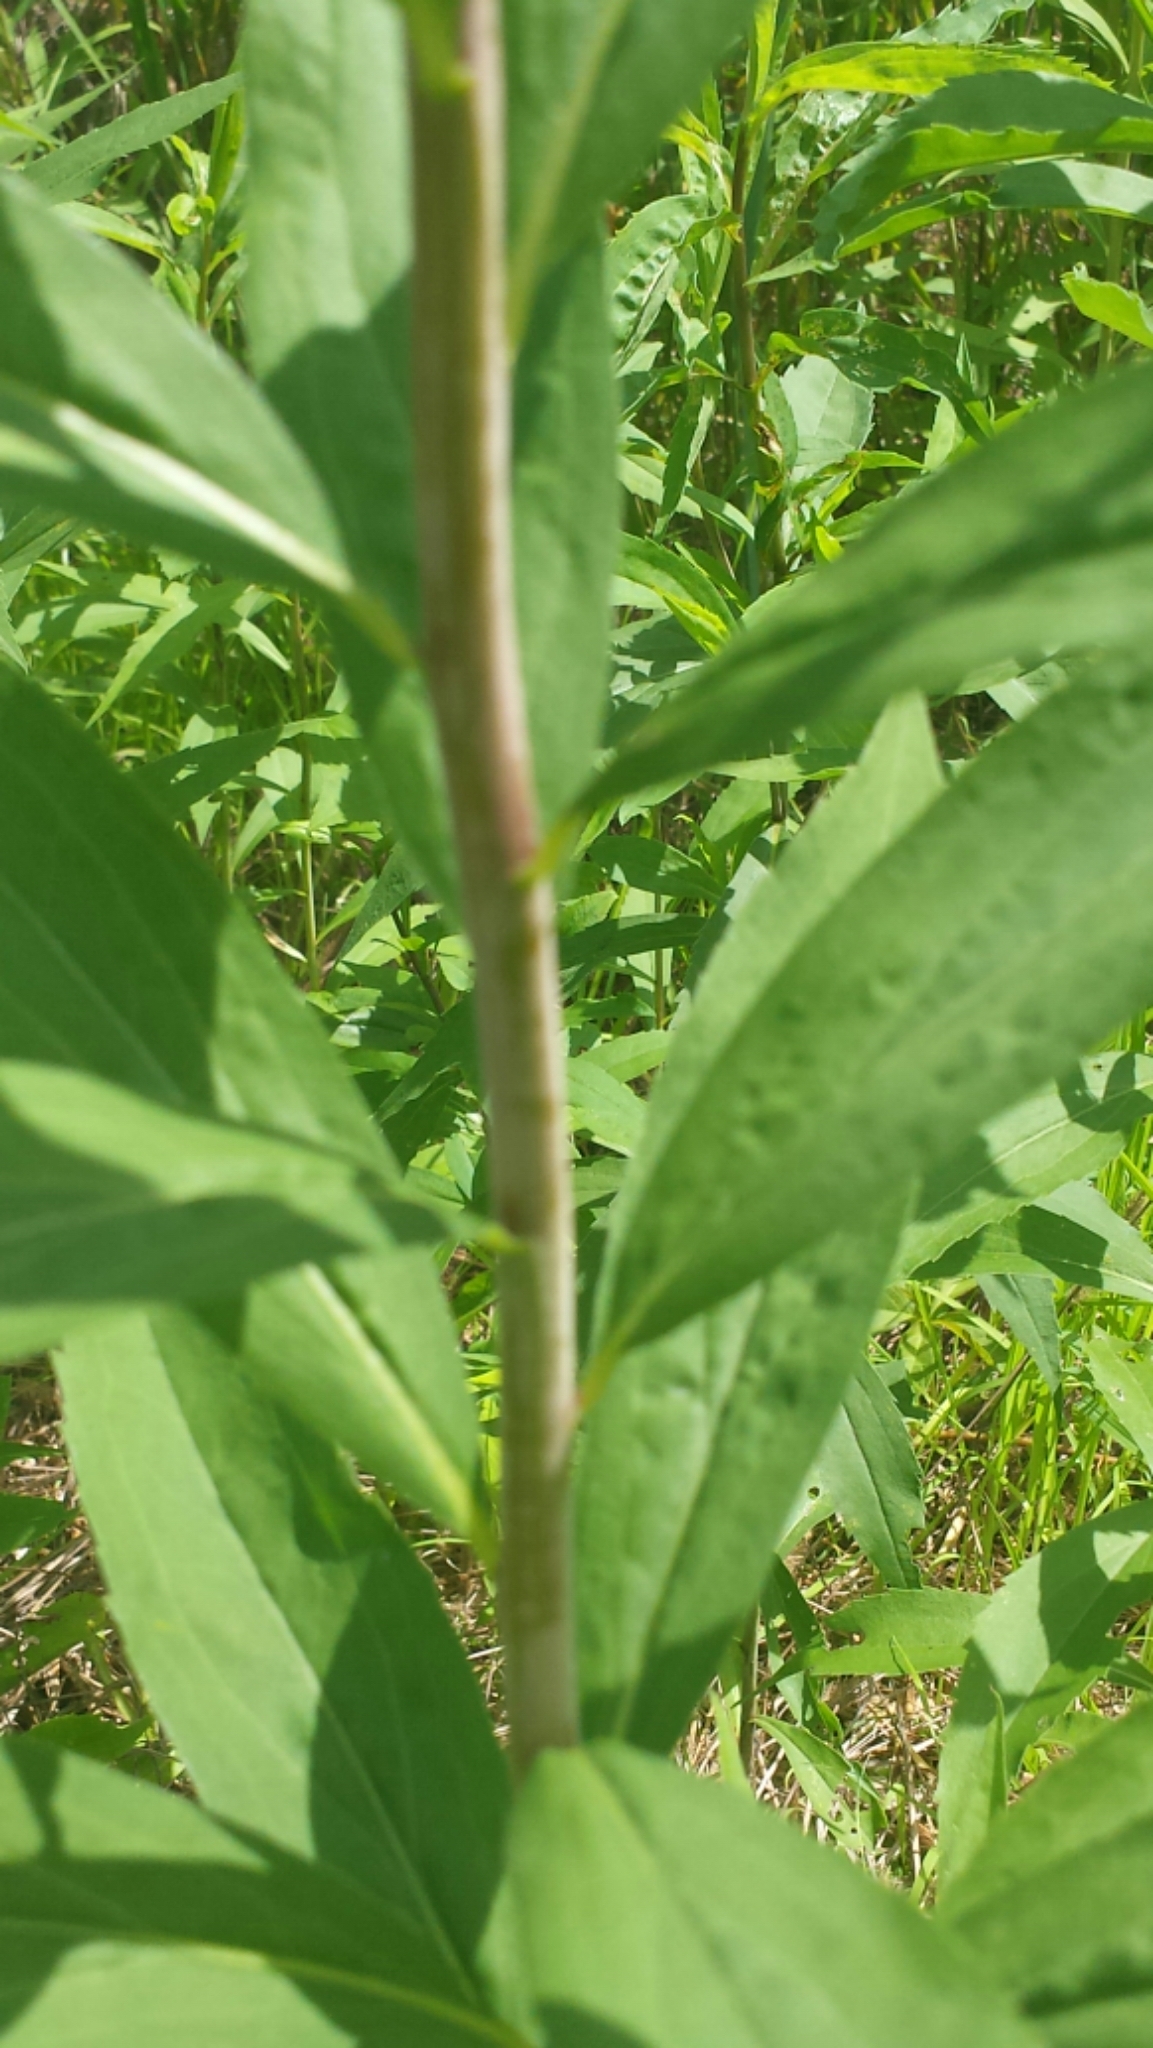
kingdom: Plantae
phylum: Tracheophyta
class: Magnoliopsida
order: Asterales
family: Asteraceae
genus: Solidago
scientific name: Solidago gigantea
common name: Giant goldenrod
